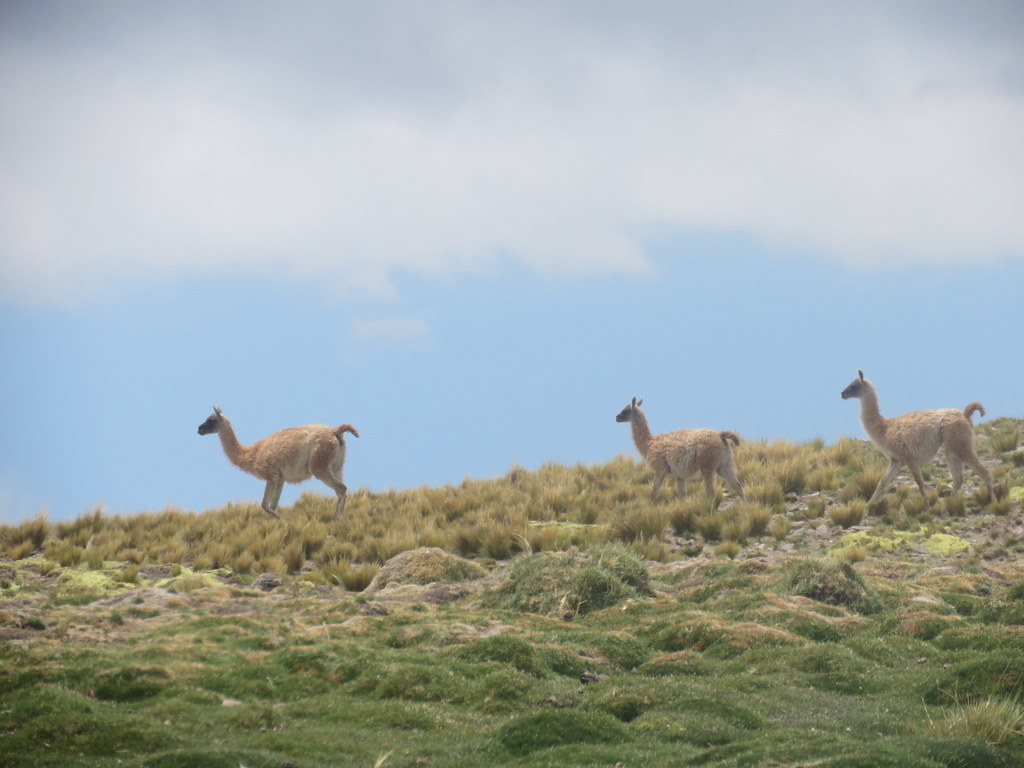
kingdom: Animalia
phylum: Chordata
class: Mammalia
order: Artiodactyla
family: Camelidae
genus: Lama
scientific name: Lama glama
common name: Llama
